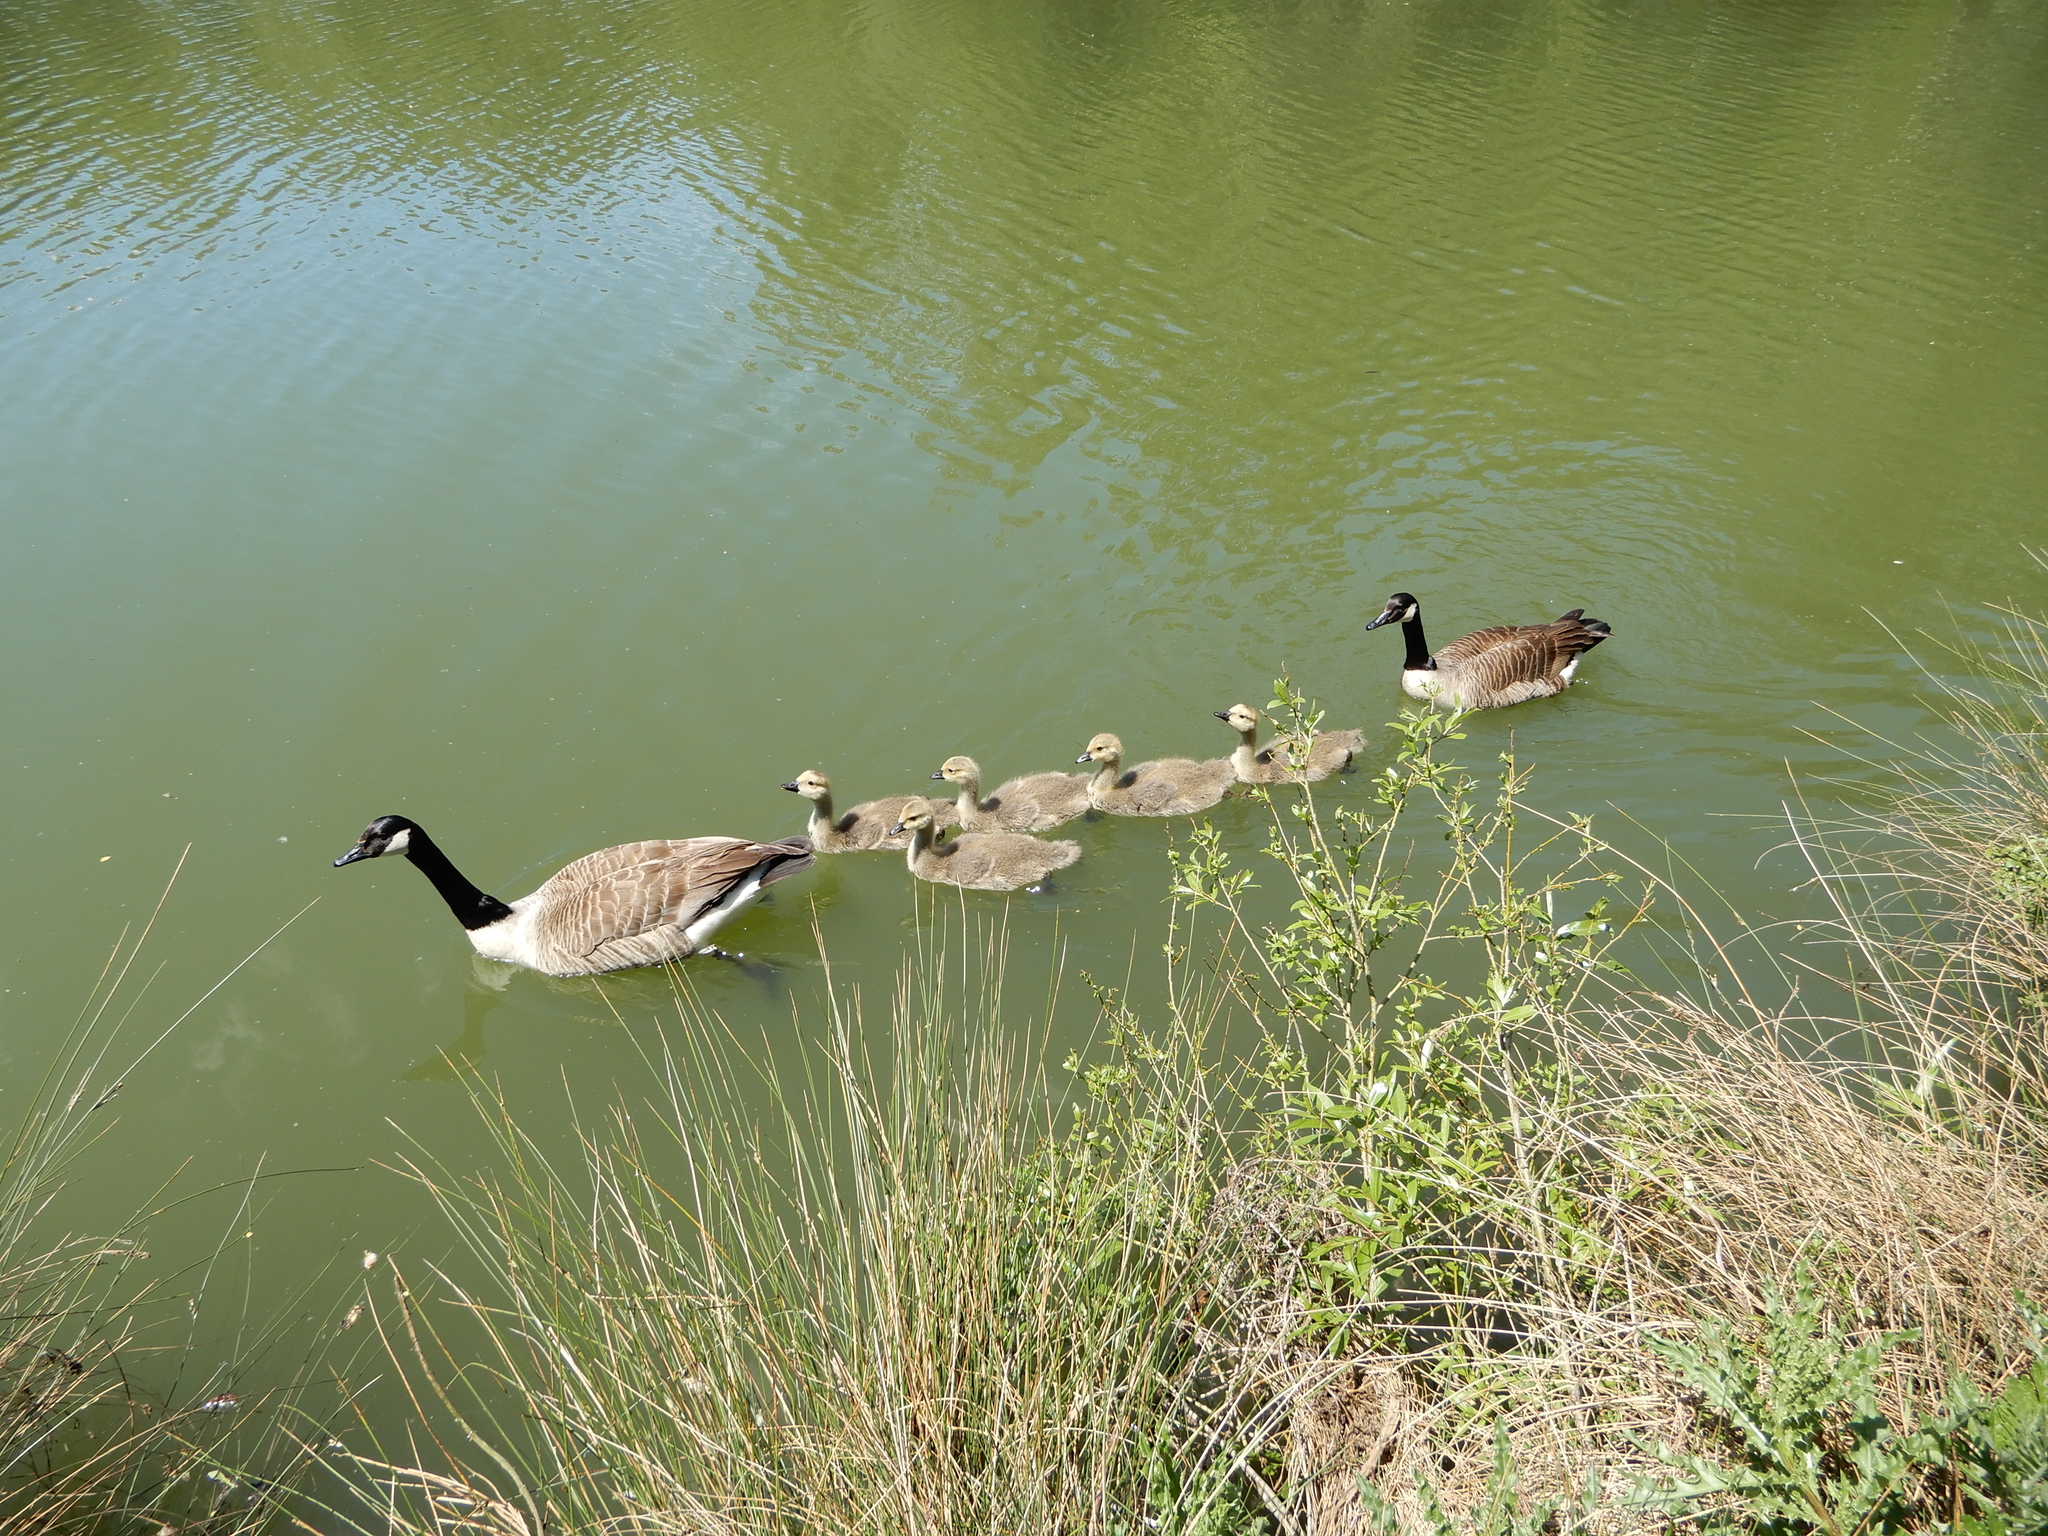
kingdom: Animalia
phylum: Chordata
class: Aves
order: Anseriformes
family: Anatidae
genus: Branta
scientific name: Branta canadensis
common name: Canada goose
